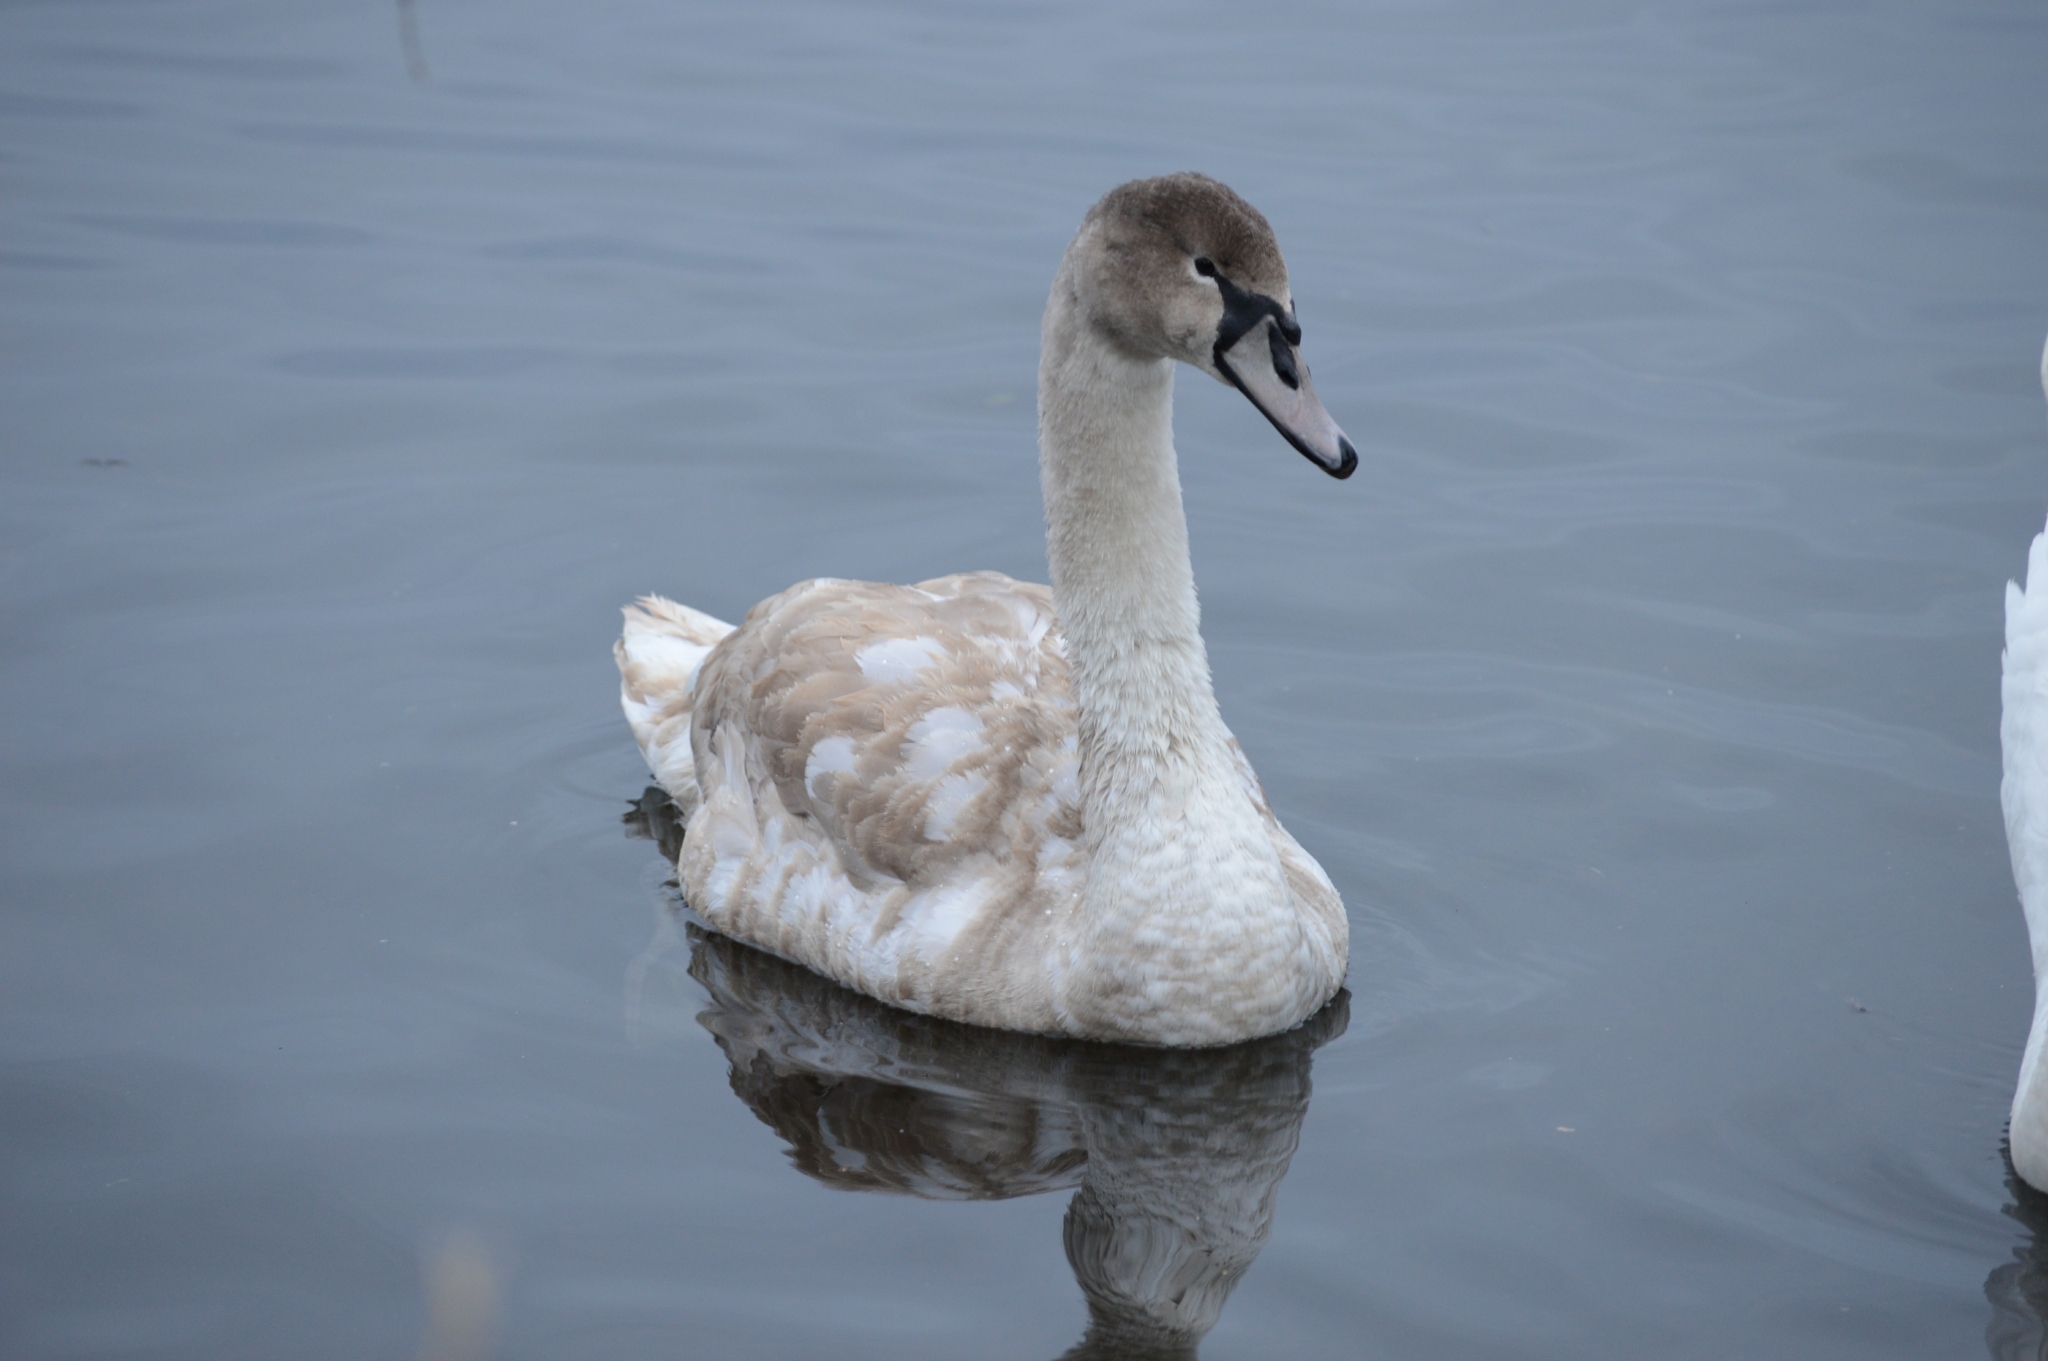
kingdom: Animalia
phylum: Chordata
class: Aves
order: Anseriformes
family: Anatidae
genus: Cygnus
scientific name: Cygnus olor
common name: Mute swan
